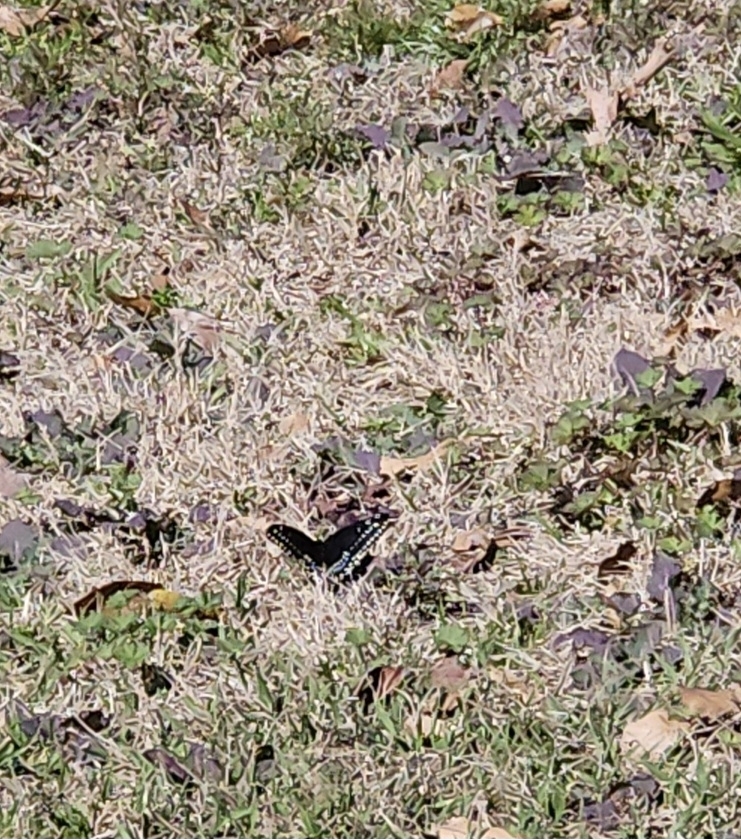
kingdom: Animalia
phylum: Arthropoda
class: Insecta
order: Lepidoptera
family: Papilionidae
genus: Papilio
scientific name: Papilio polyxenes
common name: Black swallowtail
